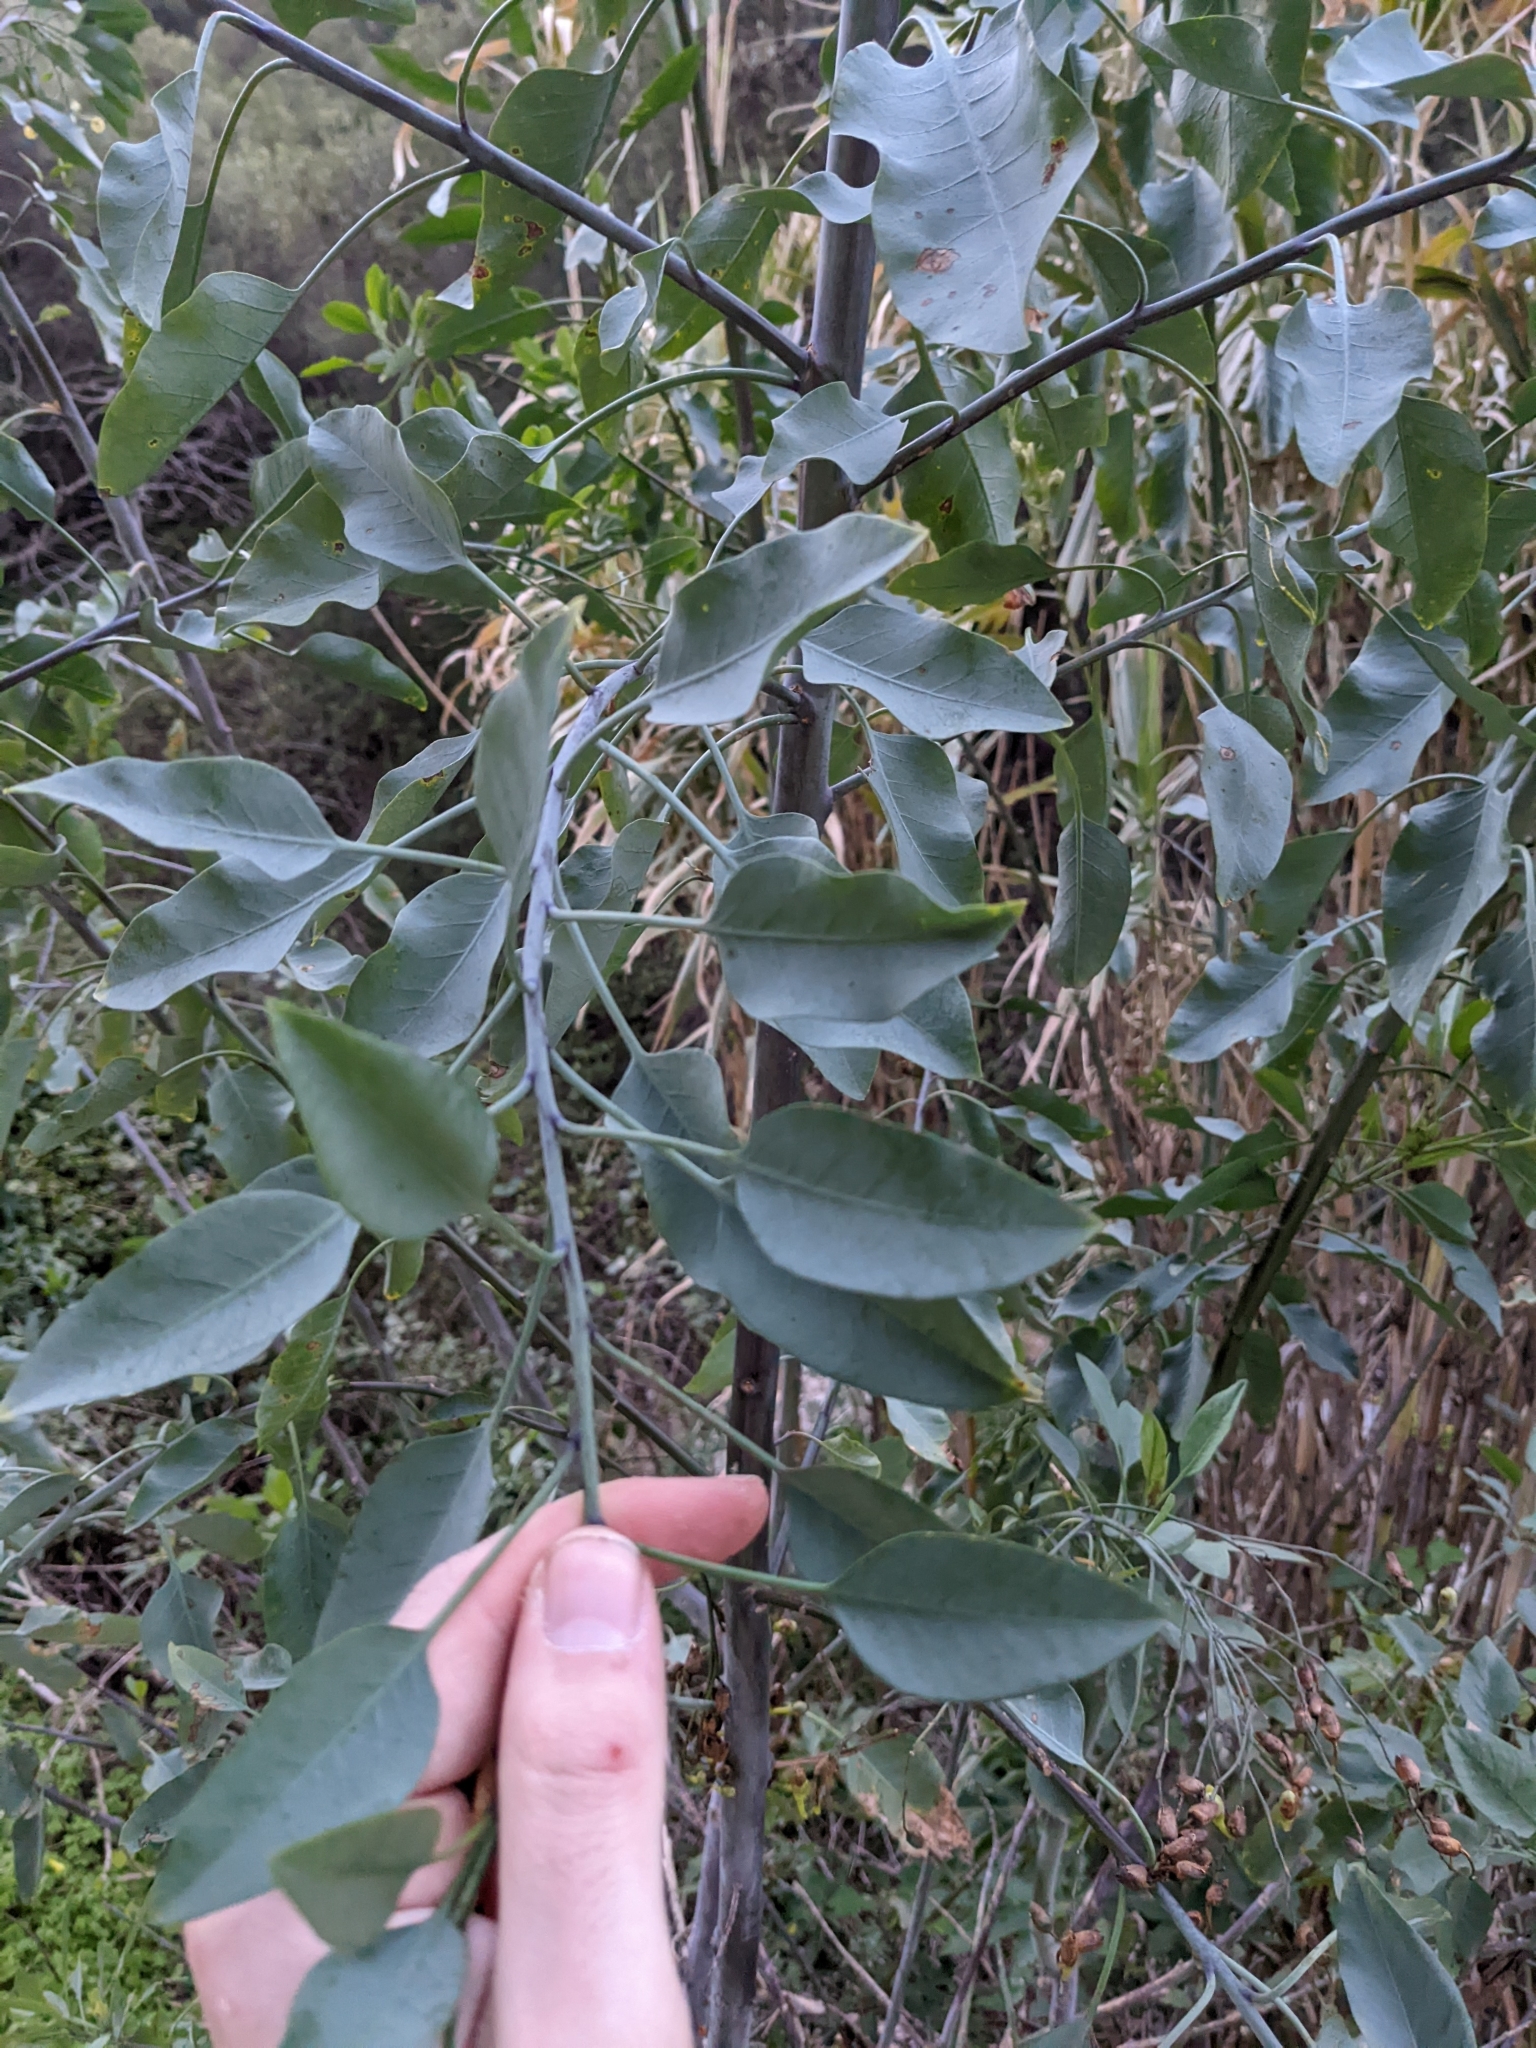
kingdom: Plantae
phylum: Tracheophyta
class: Magnoliopsida
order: Solanales
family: Solanaceae
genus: Nicotiana
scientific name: Nicotiana glauca
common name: Tree tobacco
